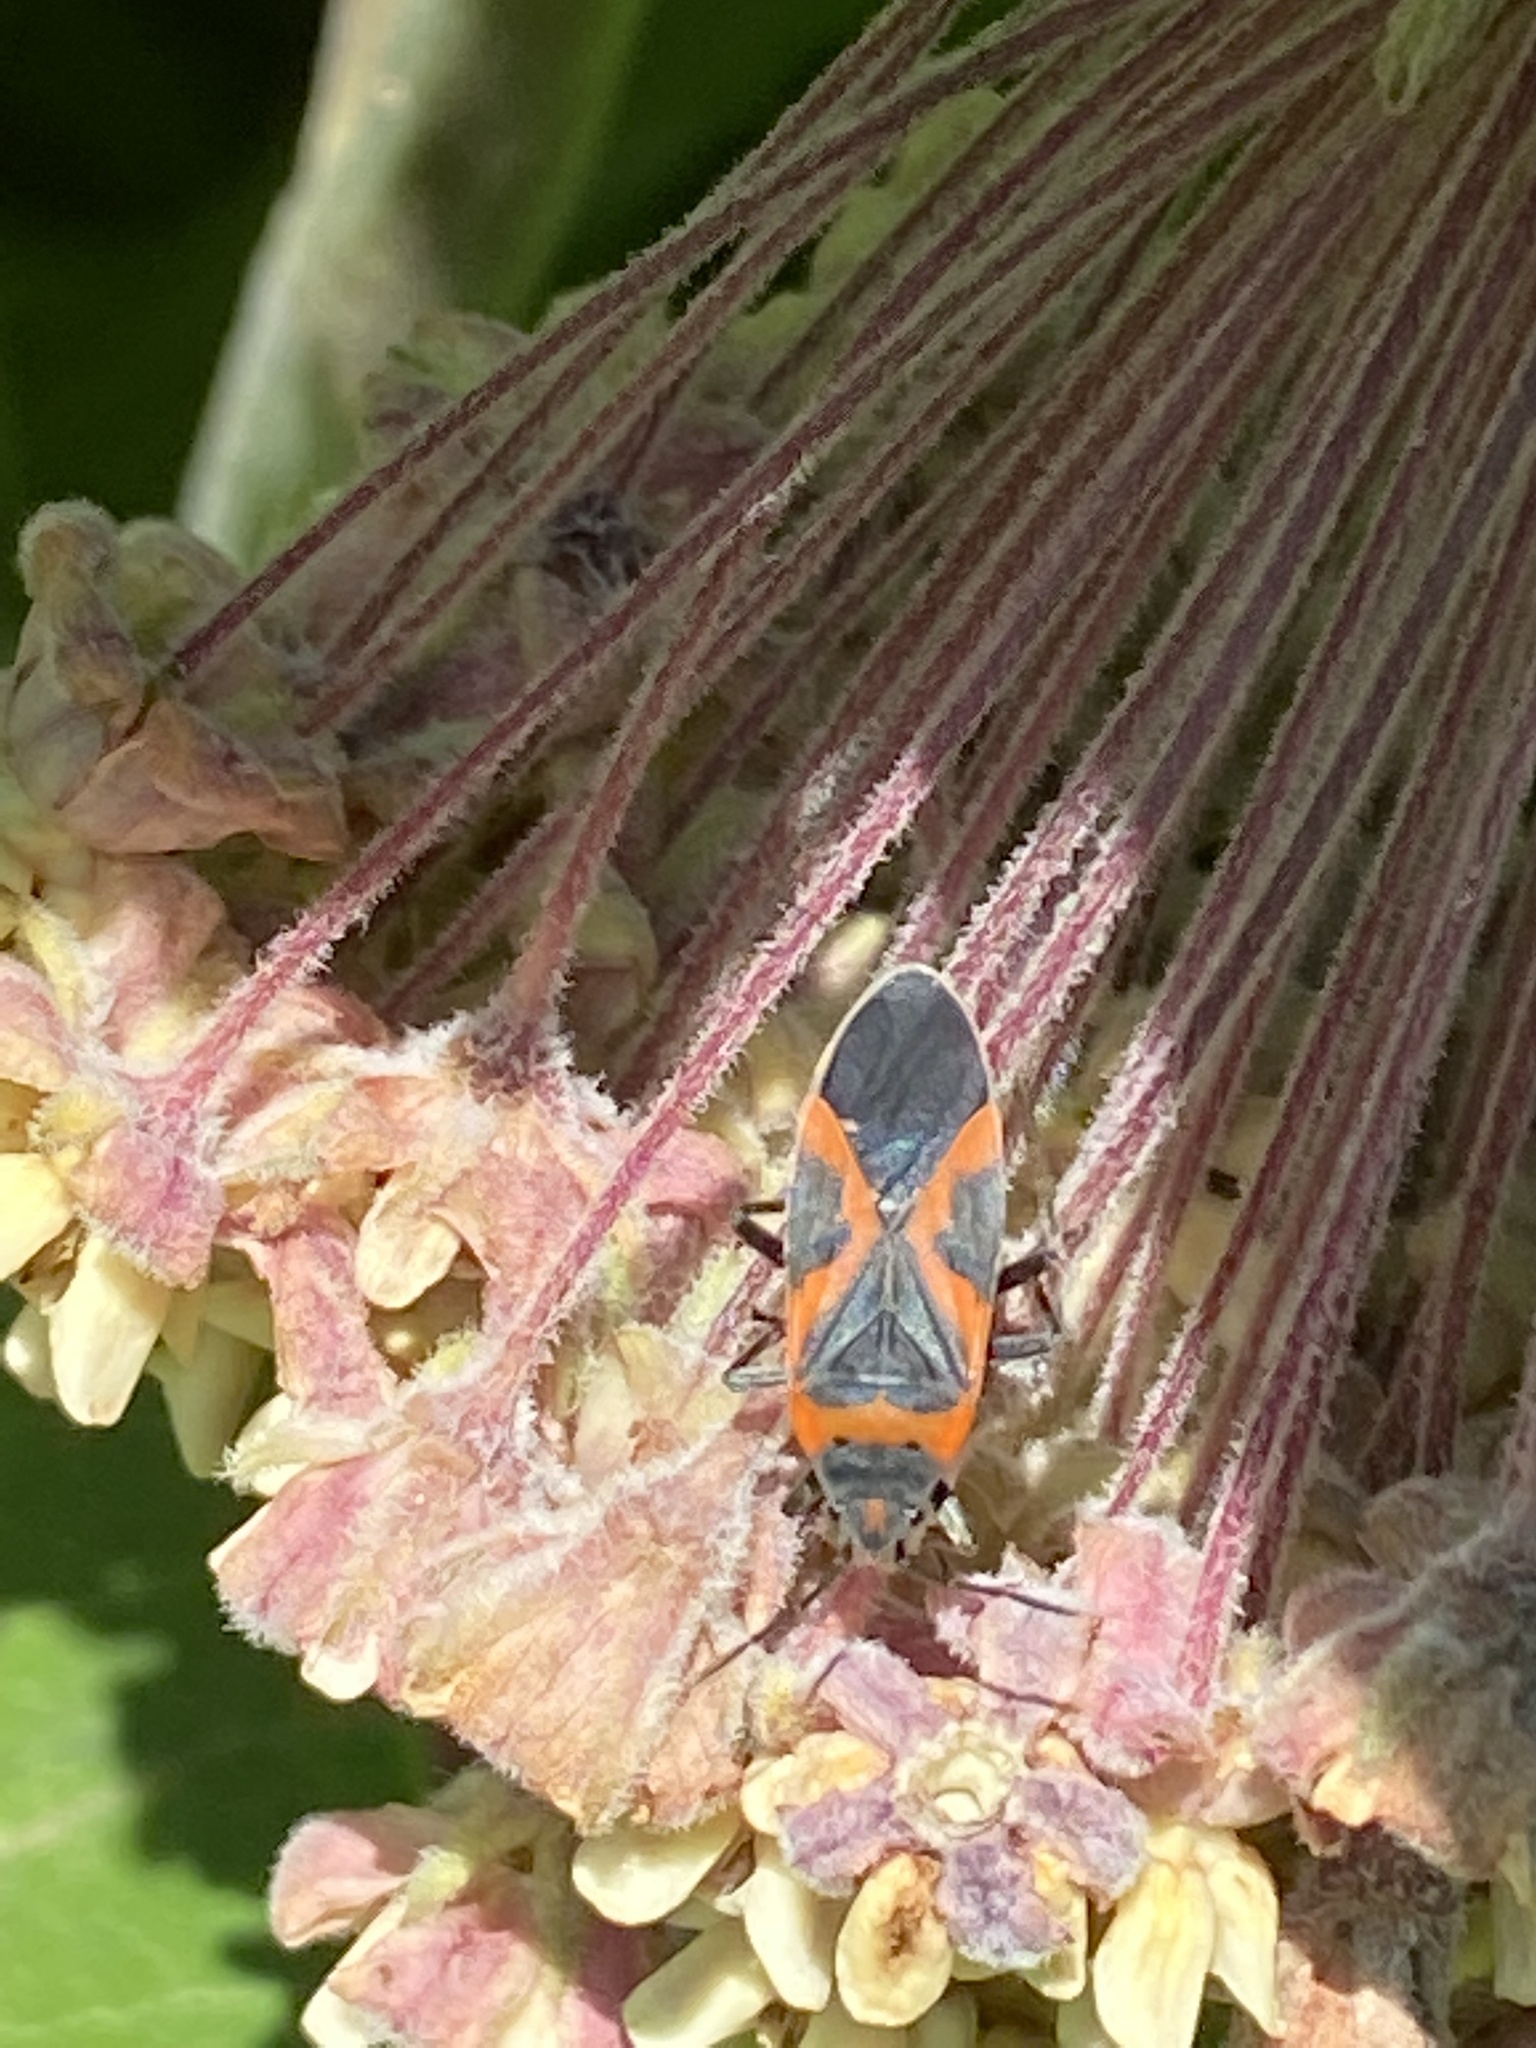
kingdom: Animalia
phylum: Arthropoda
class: Insecta
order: Hemiptera
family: Lygaeidae
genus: Lygaeus
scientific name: Lygaeus kalmii
